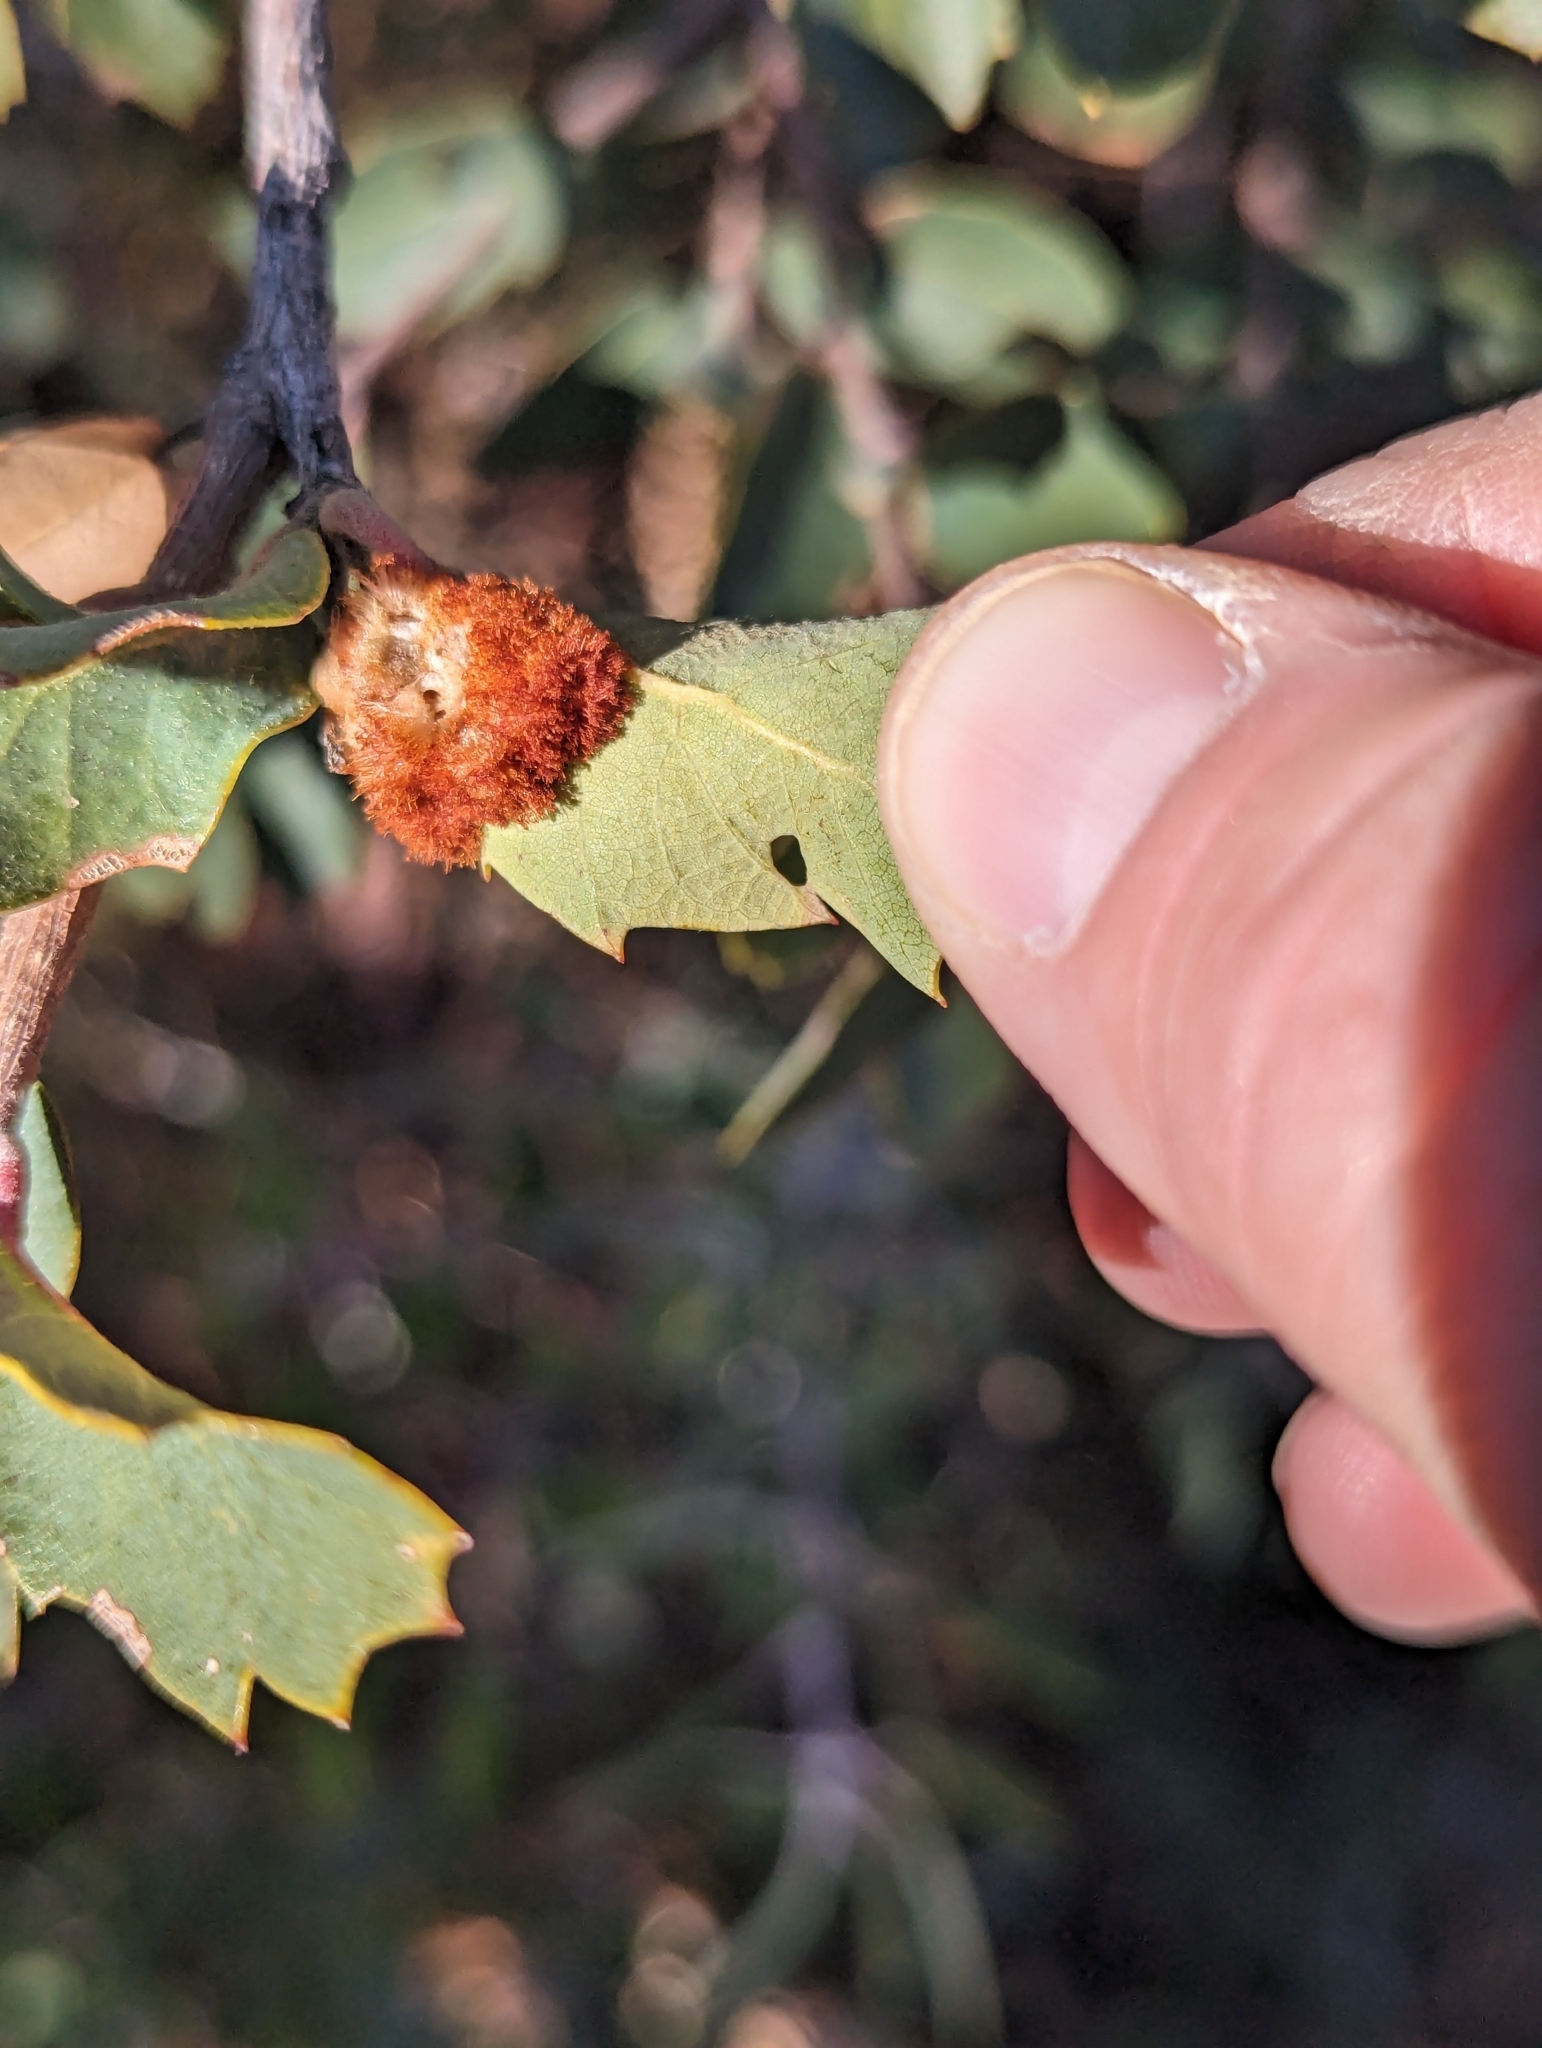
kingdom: Animalia
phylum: Arthropoda
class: Insecta
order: Hymenoptera
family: Cynipidae
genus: Andricus
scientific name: Andricus
